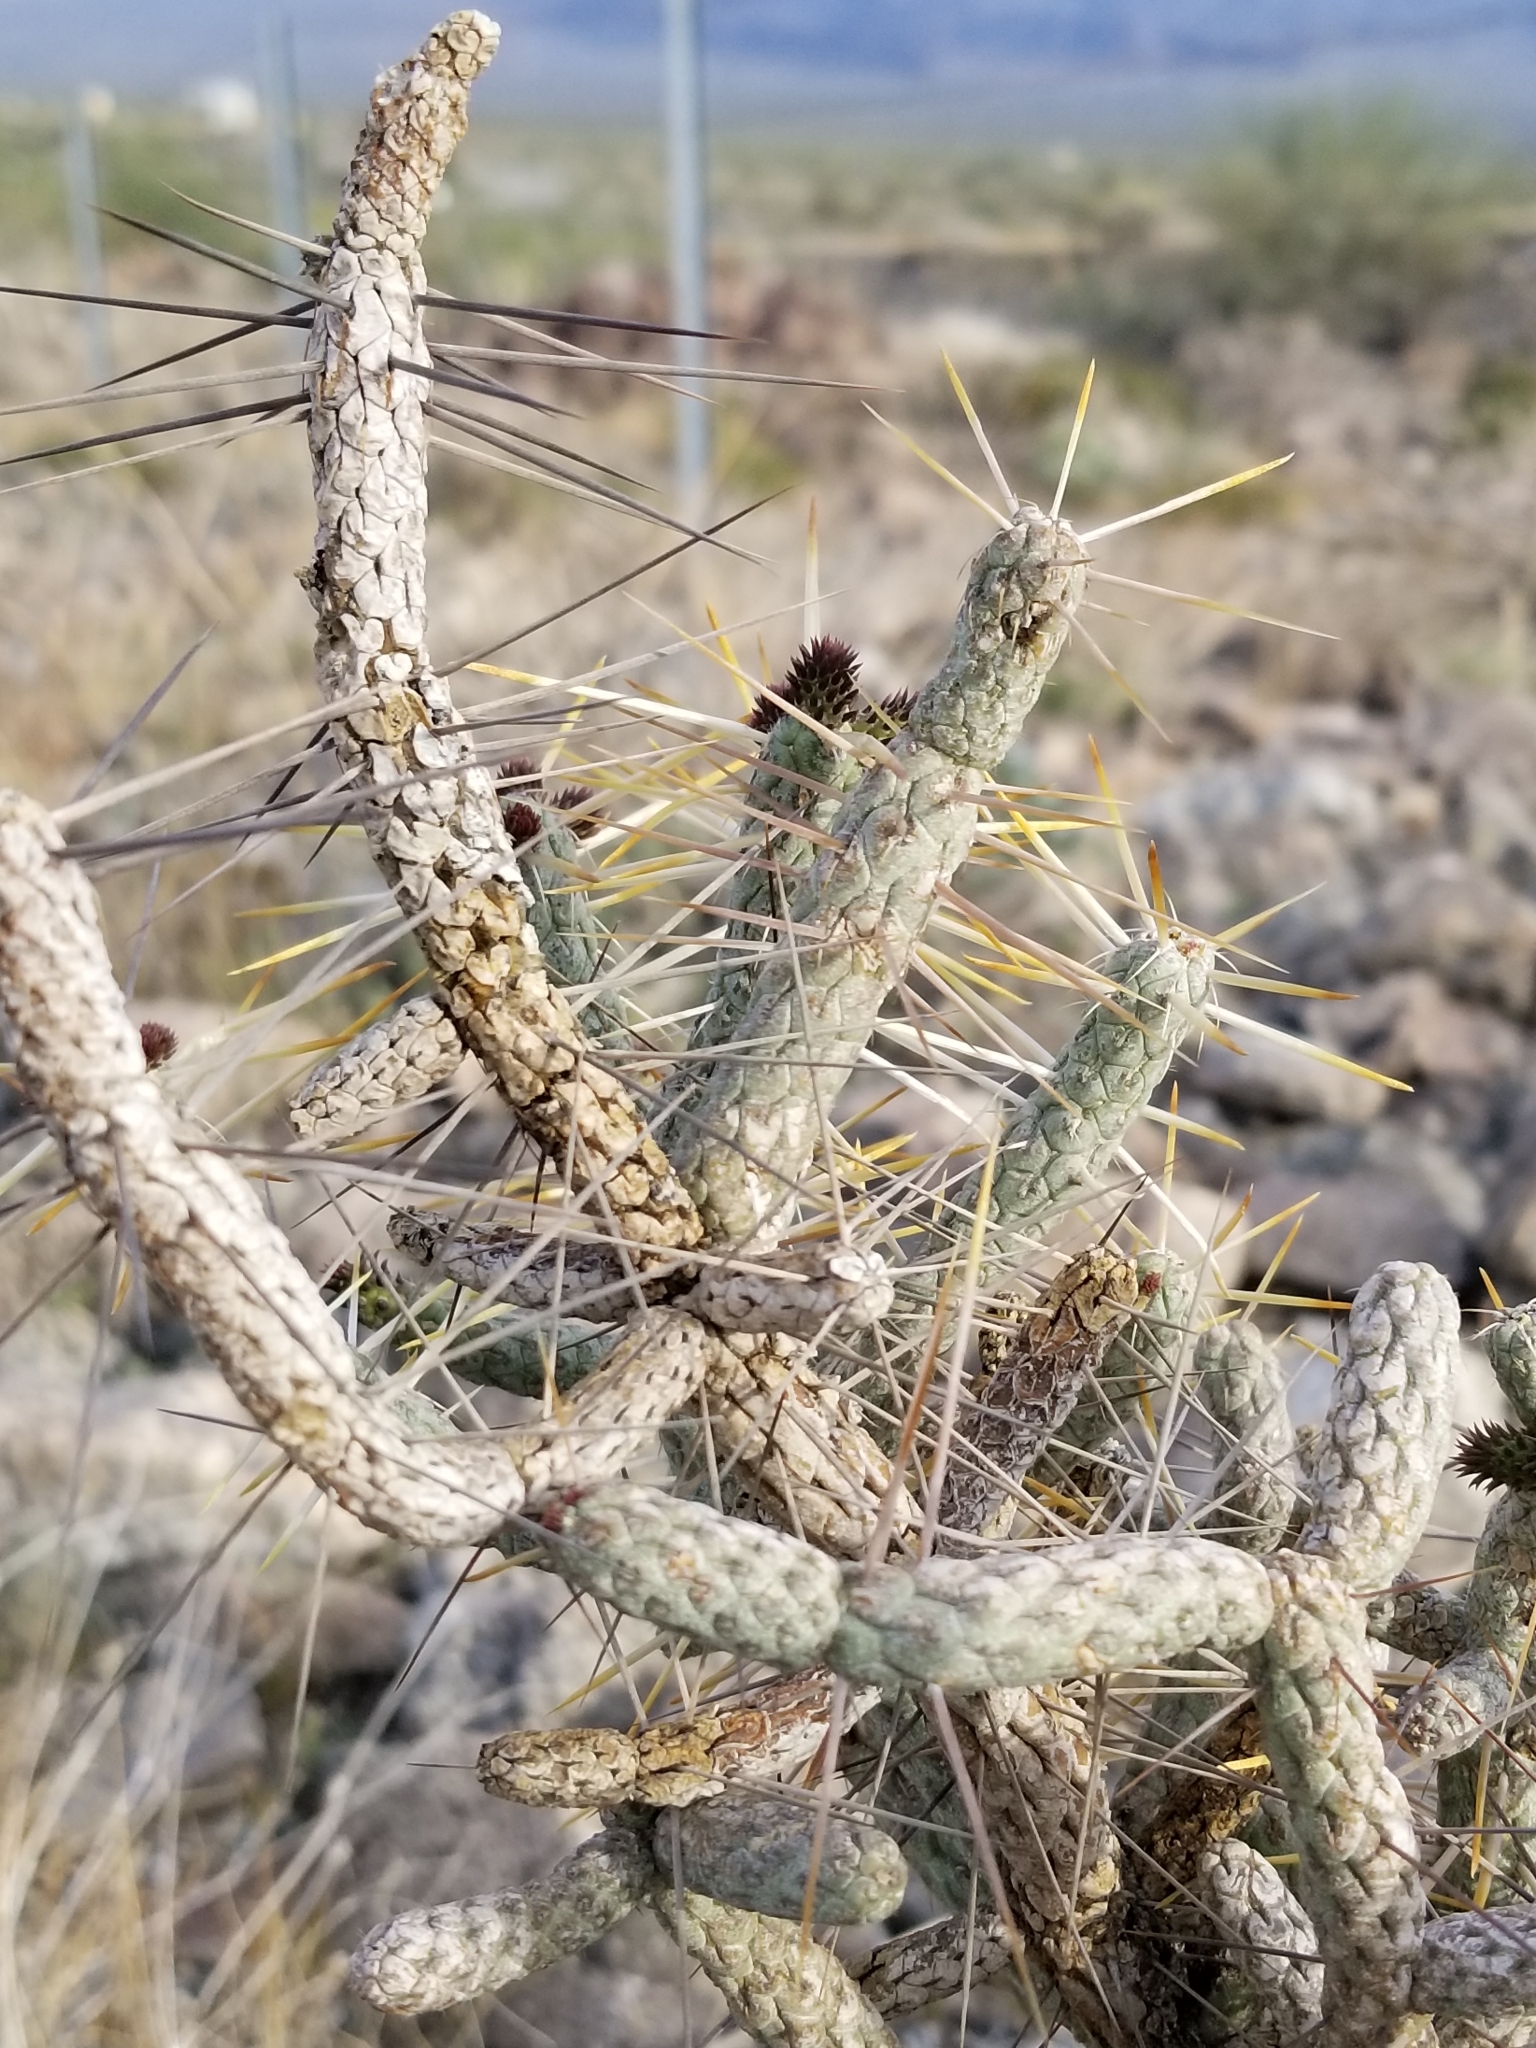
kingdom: Plantae
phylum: Tracheophyta
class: Magnoliopsida
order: Caryophyllales
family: Cactaceae
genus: Cylindropuntia
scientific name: Cylindropuntia ramosissima
